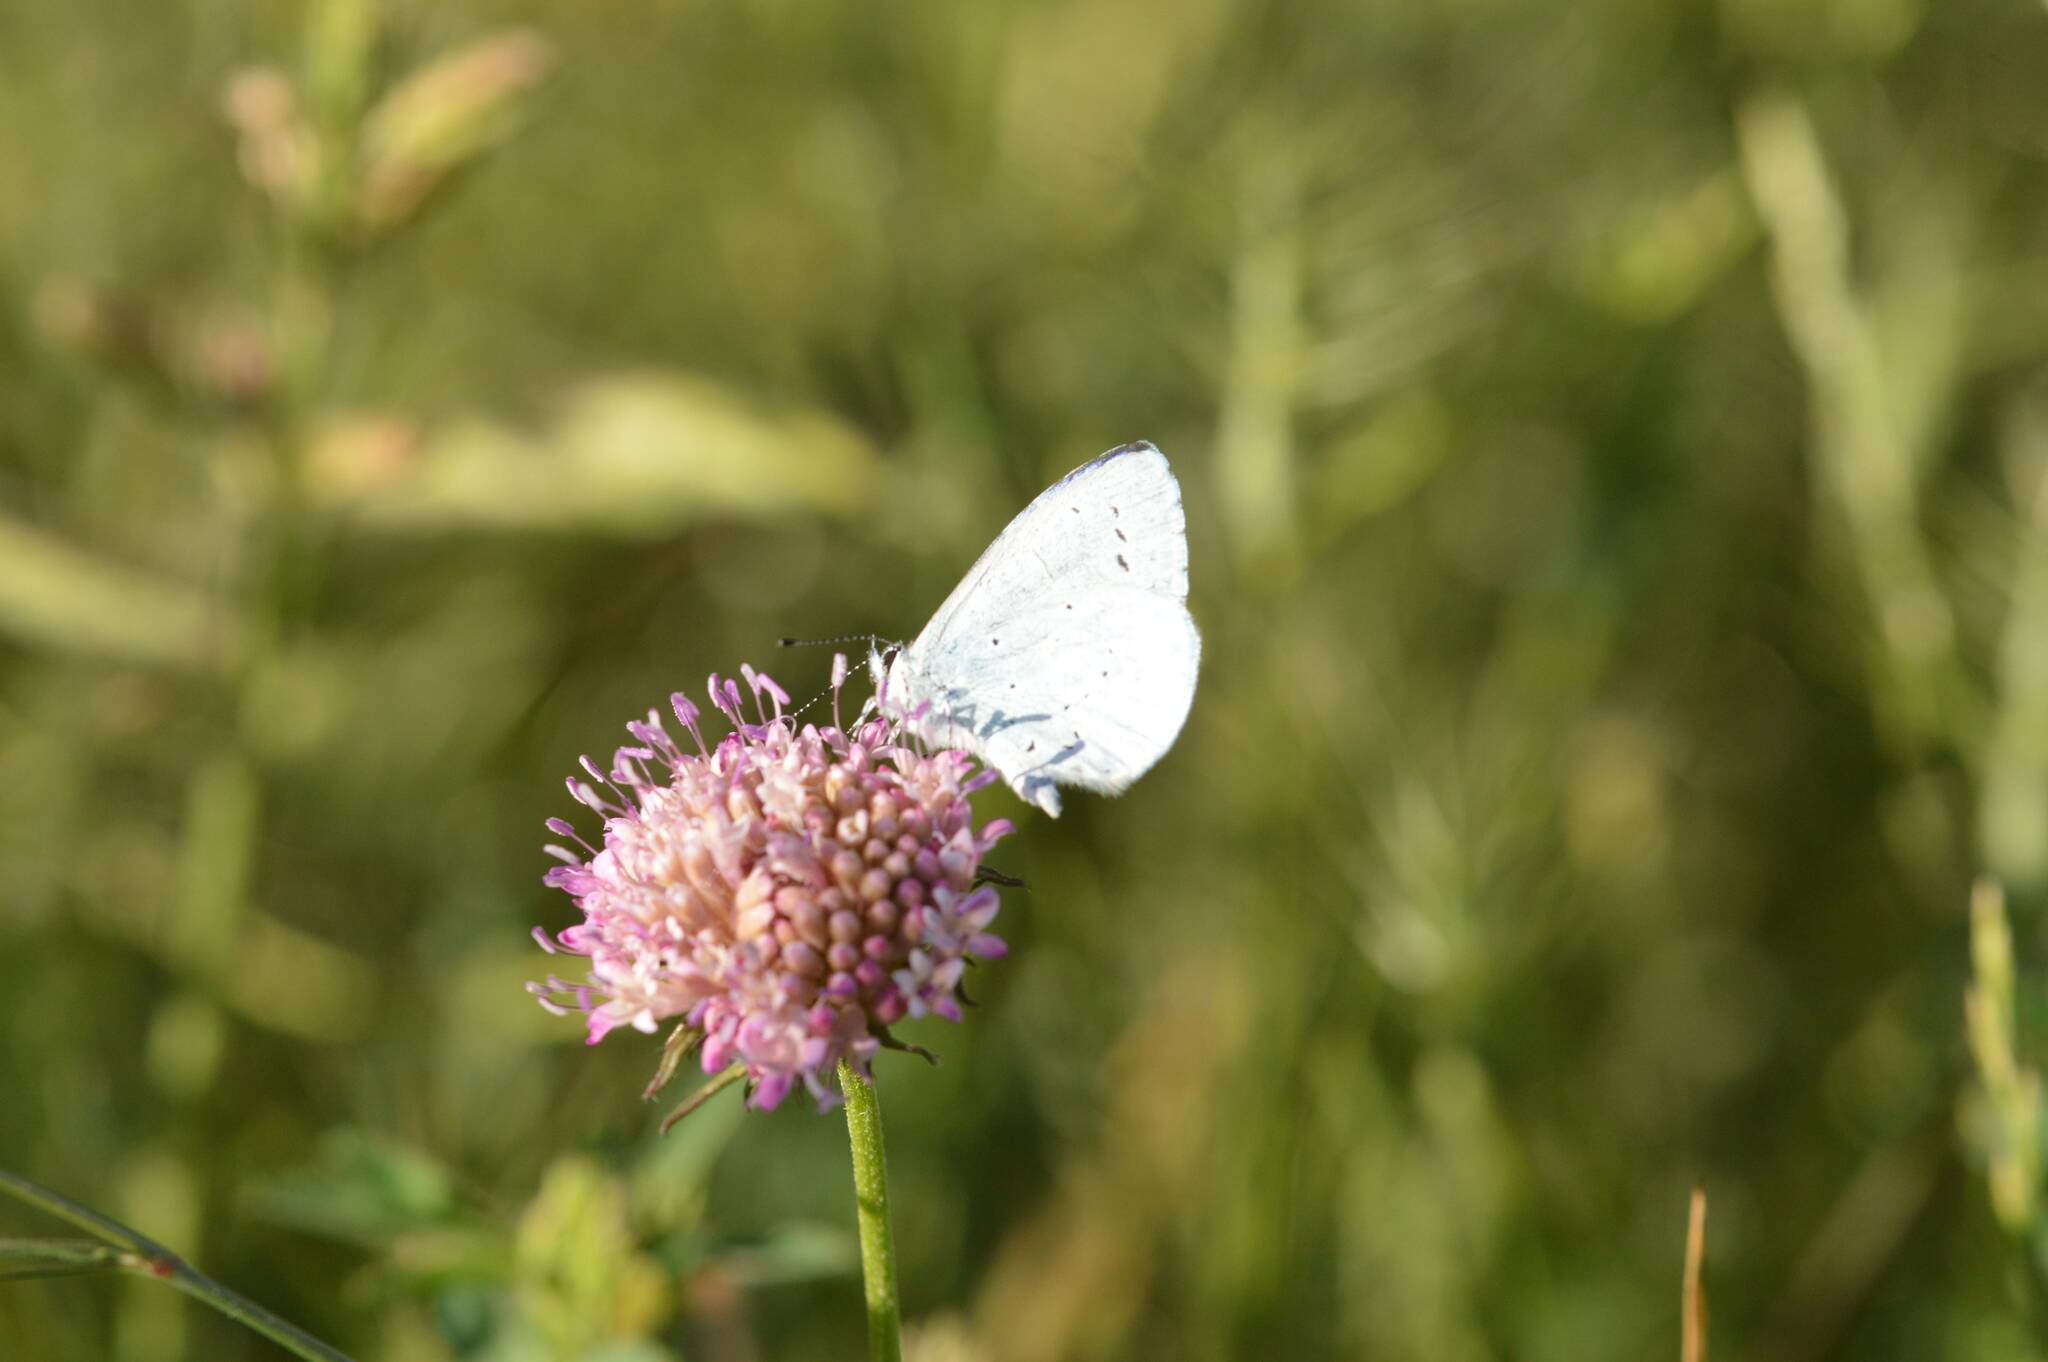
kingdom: Animalia
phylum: Arthropoda
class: Insecta
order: Lepidoptera
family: Lycaenidae
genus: Celastrina
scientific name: Celastrina argiolus
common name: Holly blue
